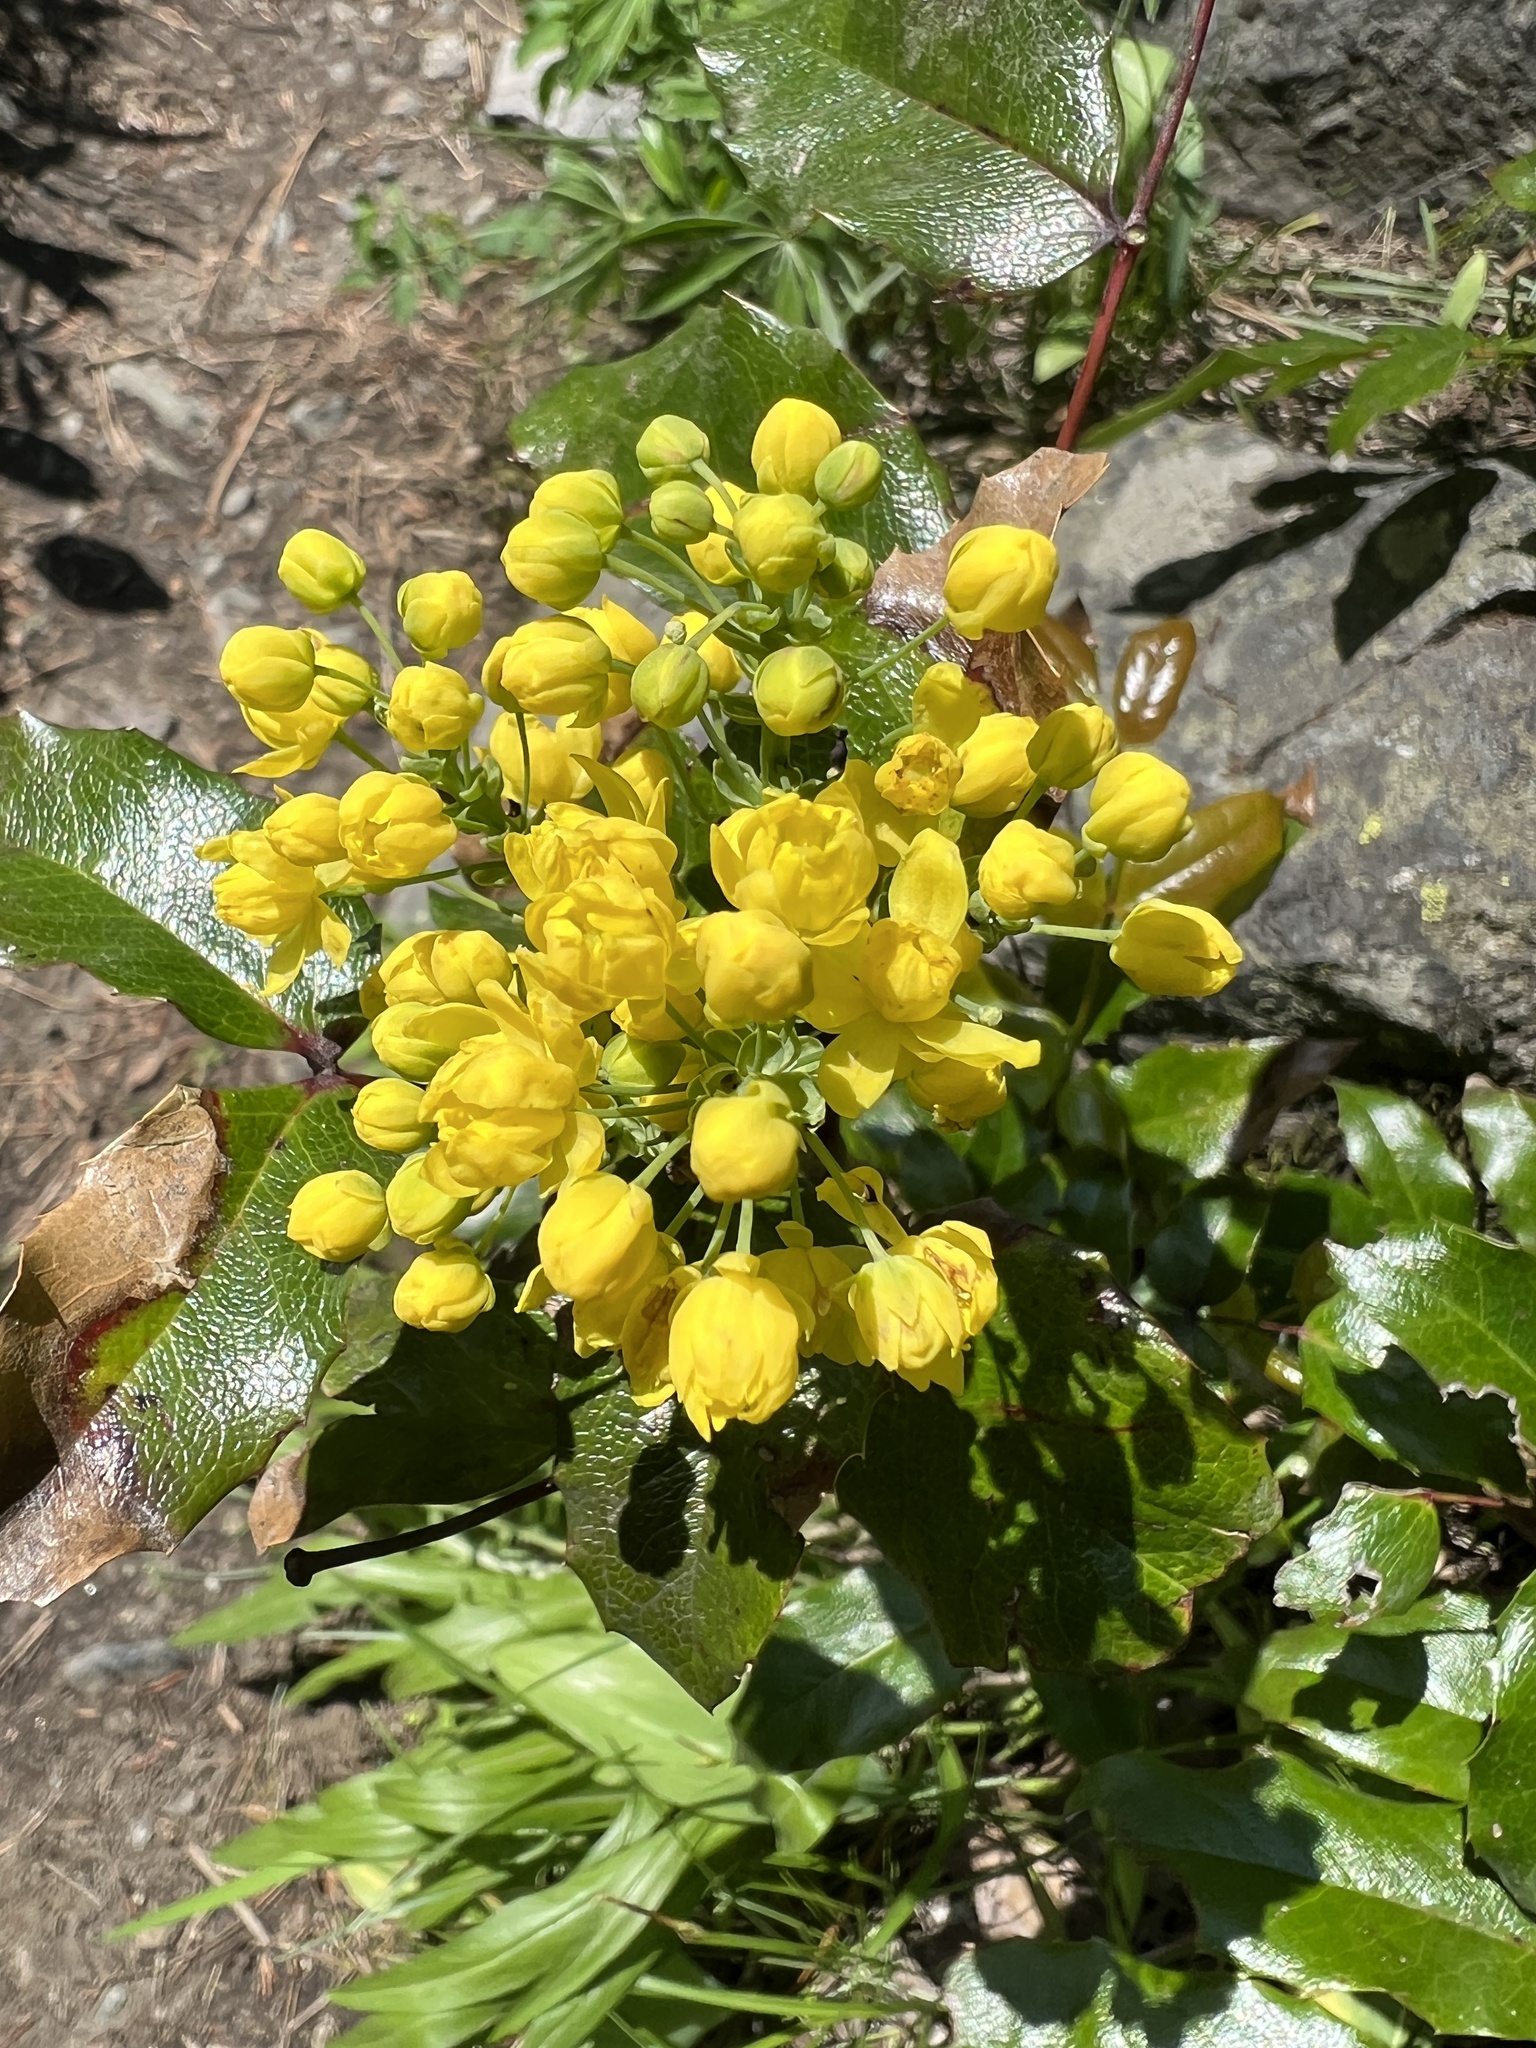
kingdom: Plantae
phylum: Tracheophyta
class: Magnoliopsida
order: Ranunculales
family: Berberidaceae
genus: Mahonia
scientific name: Mahonia aquifolium
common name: Oregon-grape
